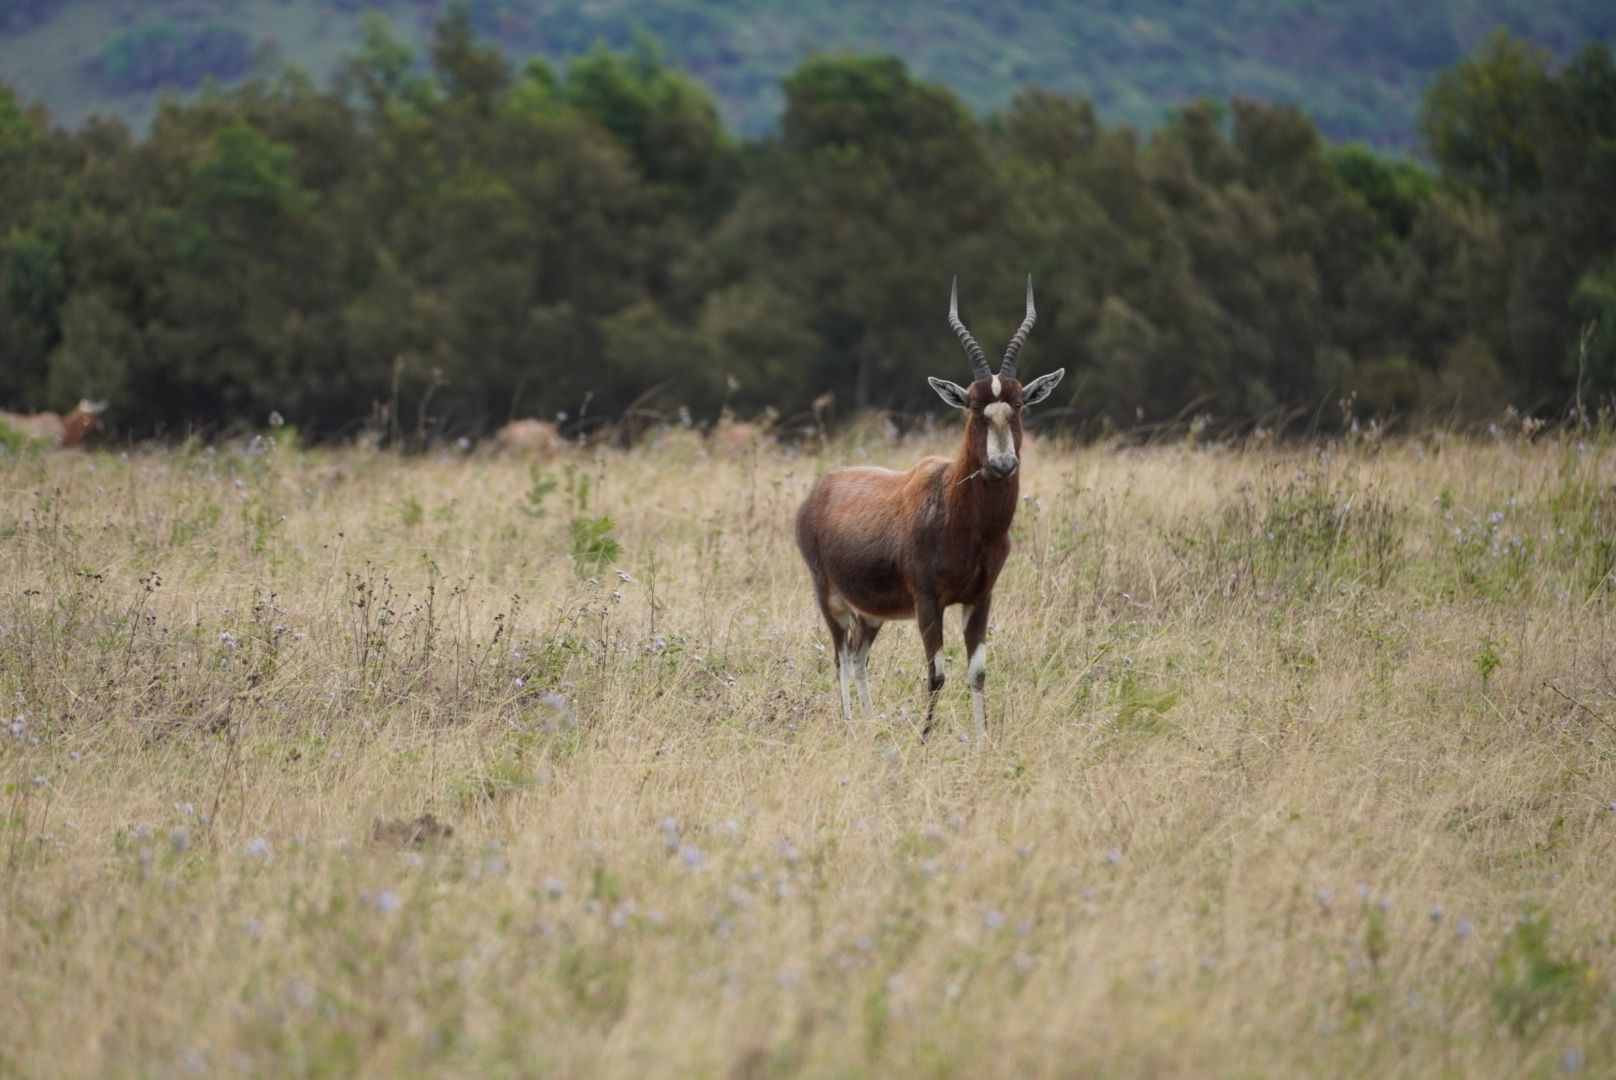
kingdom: Animalia
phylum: Chordata
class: Mammalia
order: Artiodactyla
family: Bovidae
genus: Damaliscus
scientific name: Damaliscus pygargus
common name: Bontebok
